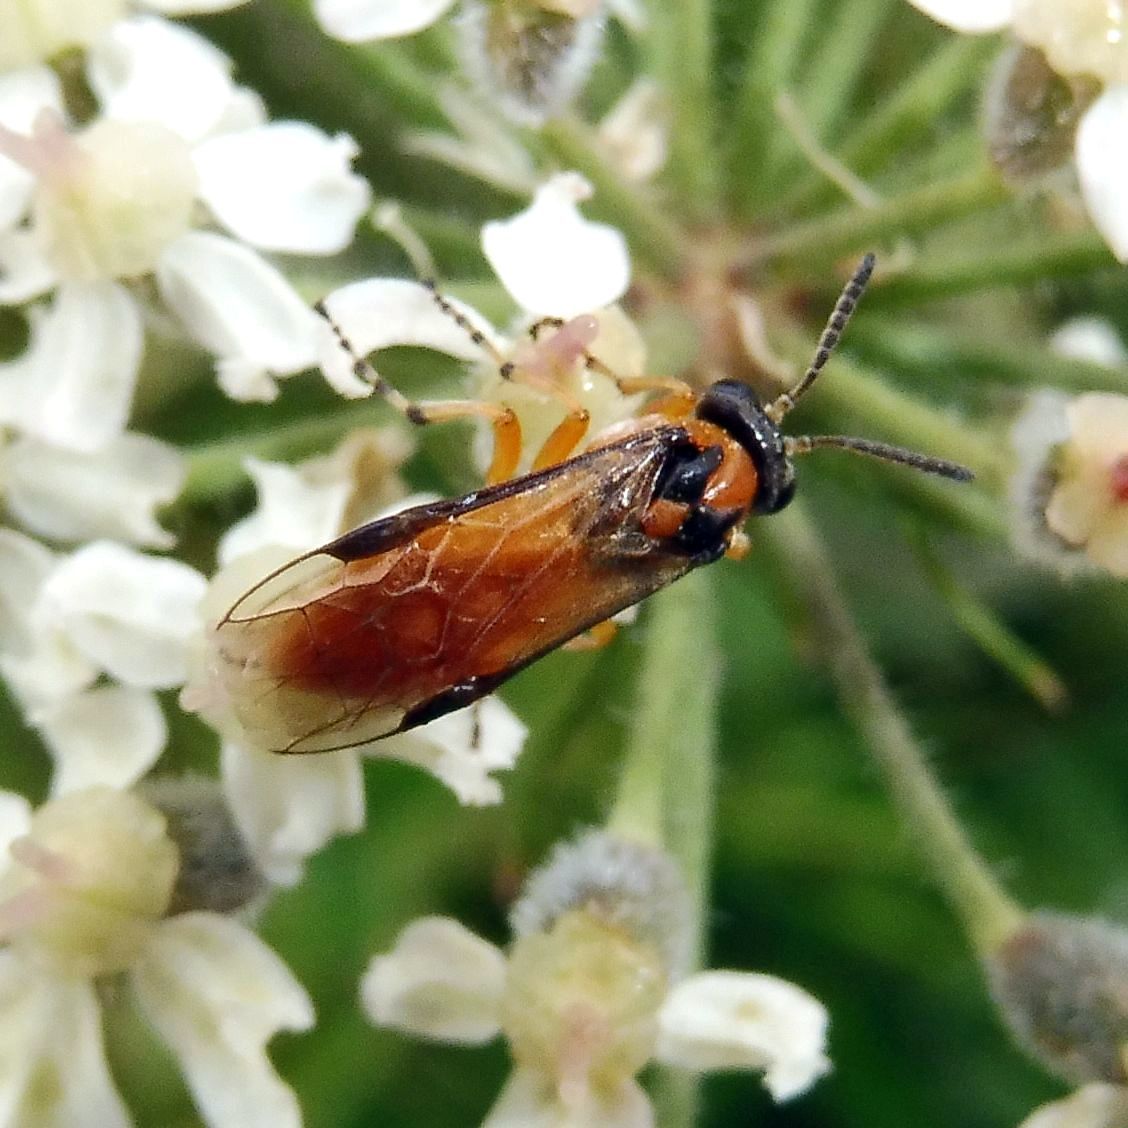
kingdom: Animalia
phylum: Arthropoda
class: Insecta
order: Hymenoptera
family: Tenthredinidae
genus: Athalia
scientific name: Athalia rosae
